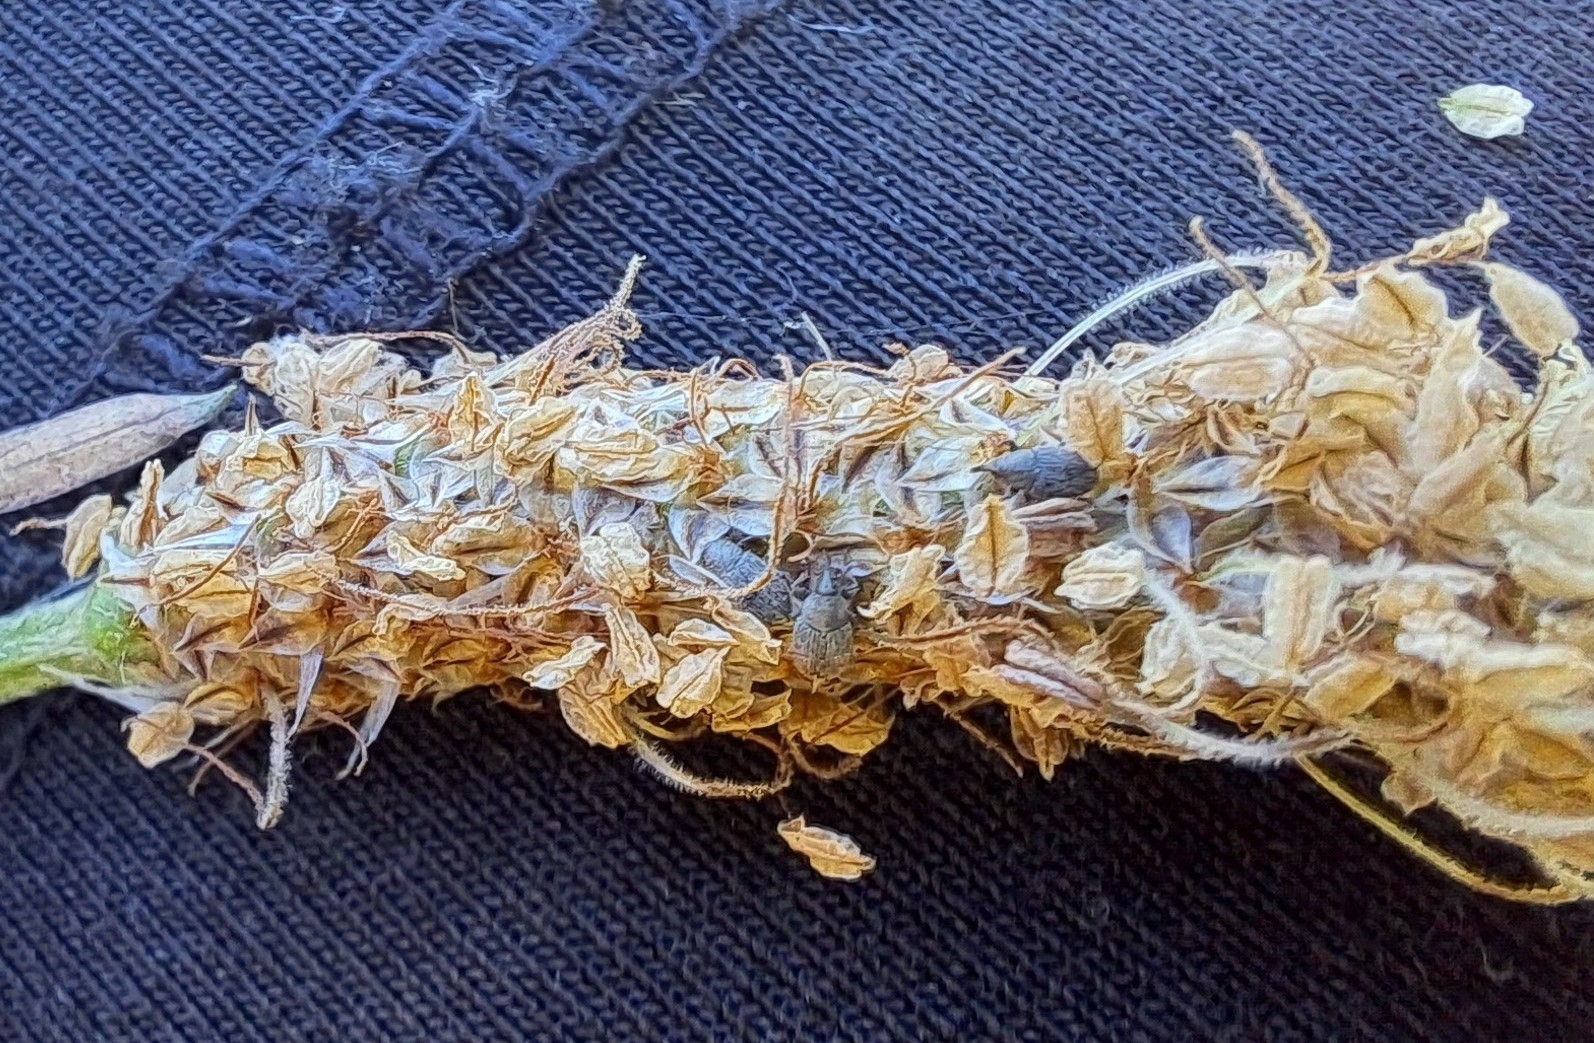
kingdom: Animalia
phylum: Arthropoda
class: Insecta
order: Coleoptera
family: Curculionidae
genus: Mecinus
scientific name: Mecinus pascuorum
